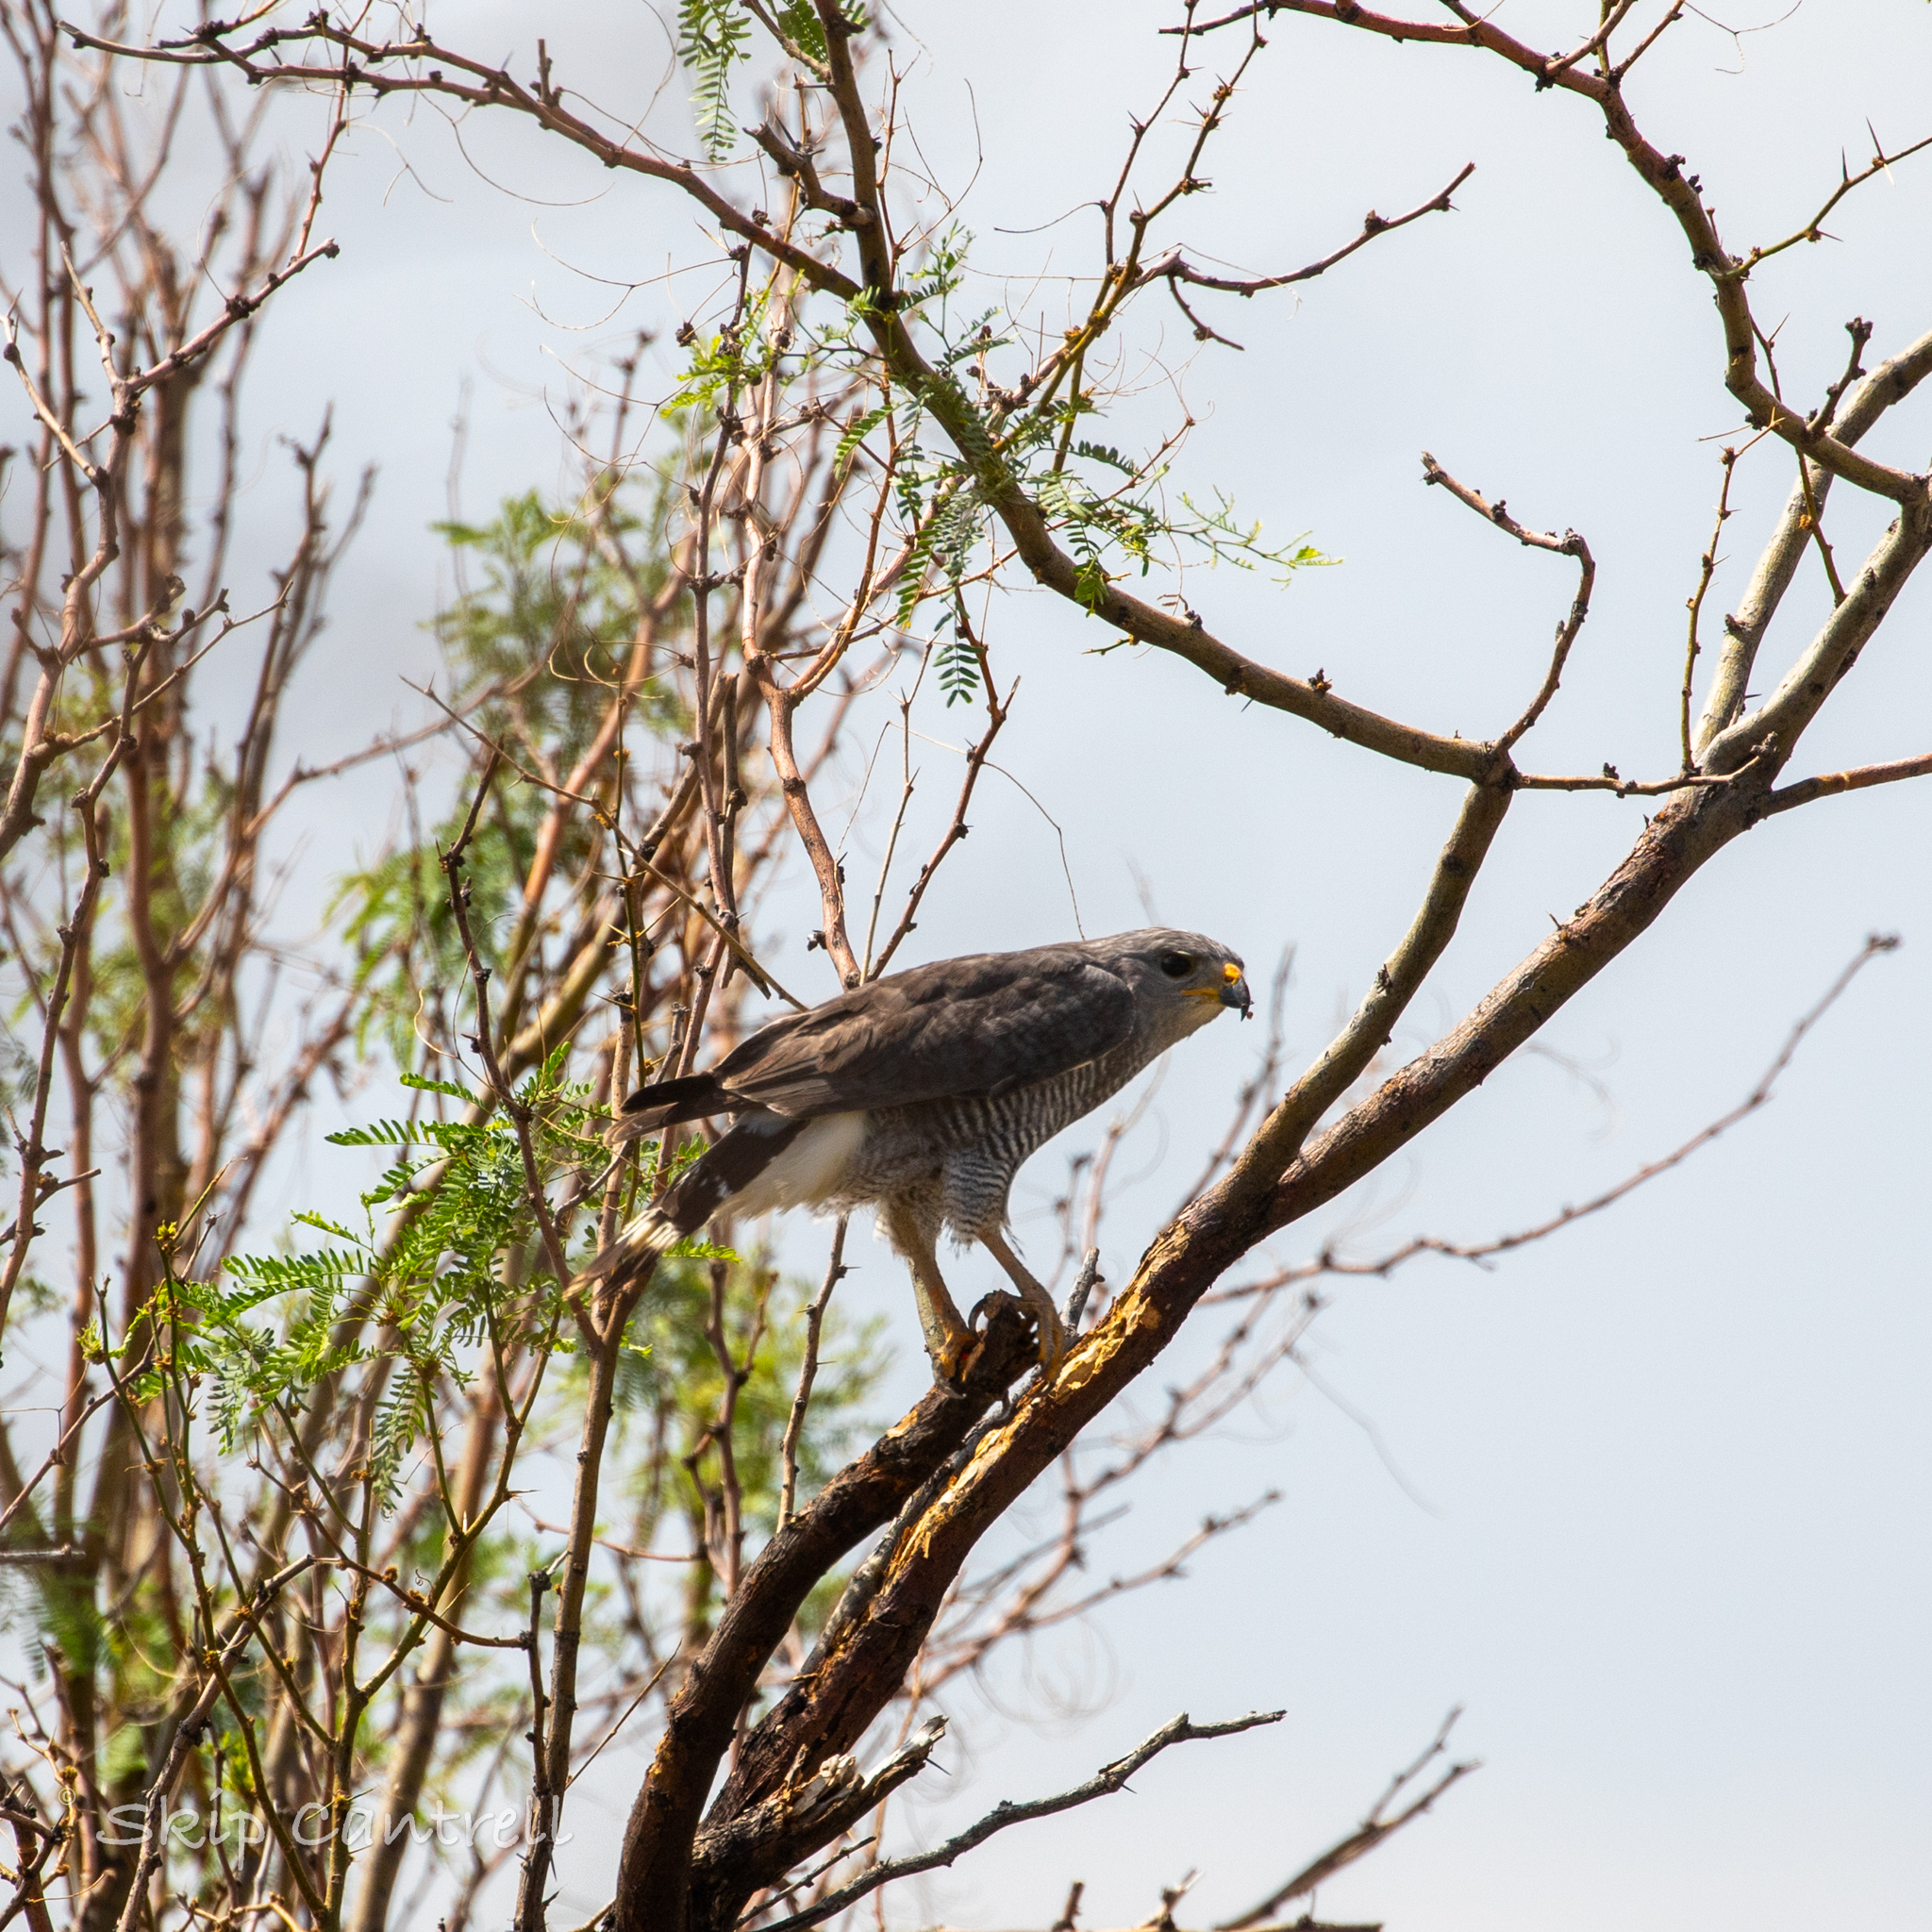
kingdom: Animalia
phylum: Chordata
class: Aves
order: Accipitriformes
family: Accipitridae
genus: Buteo
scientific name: Buteo nitidus
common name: Grey-lined hawk
